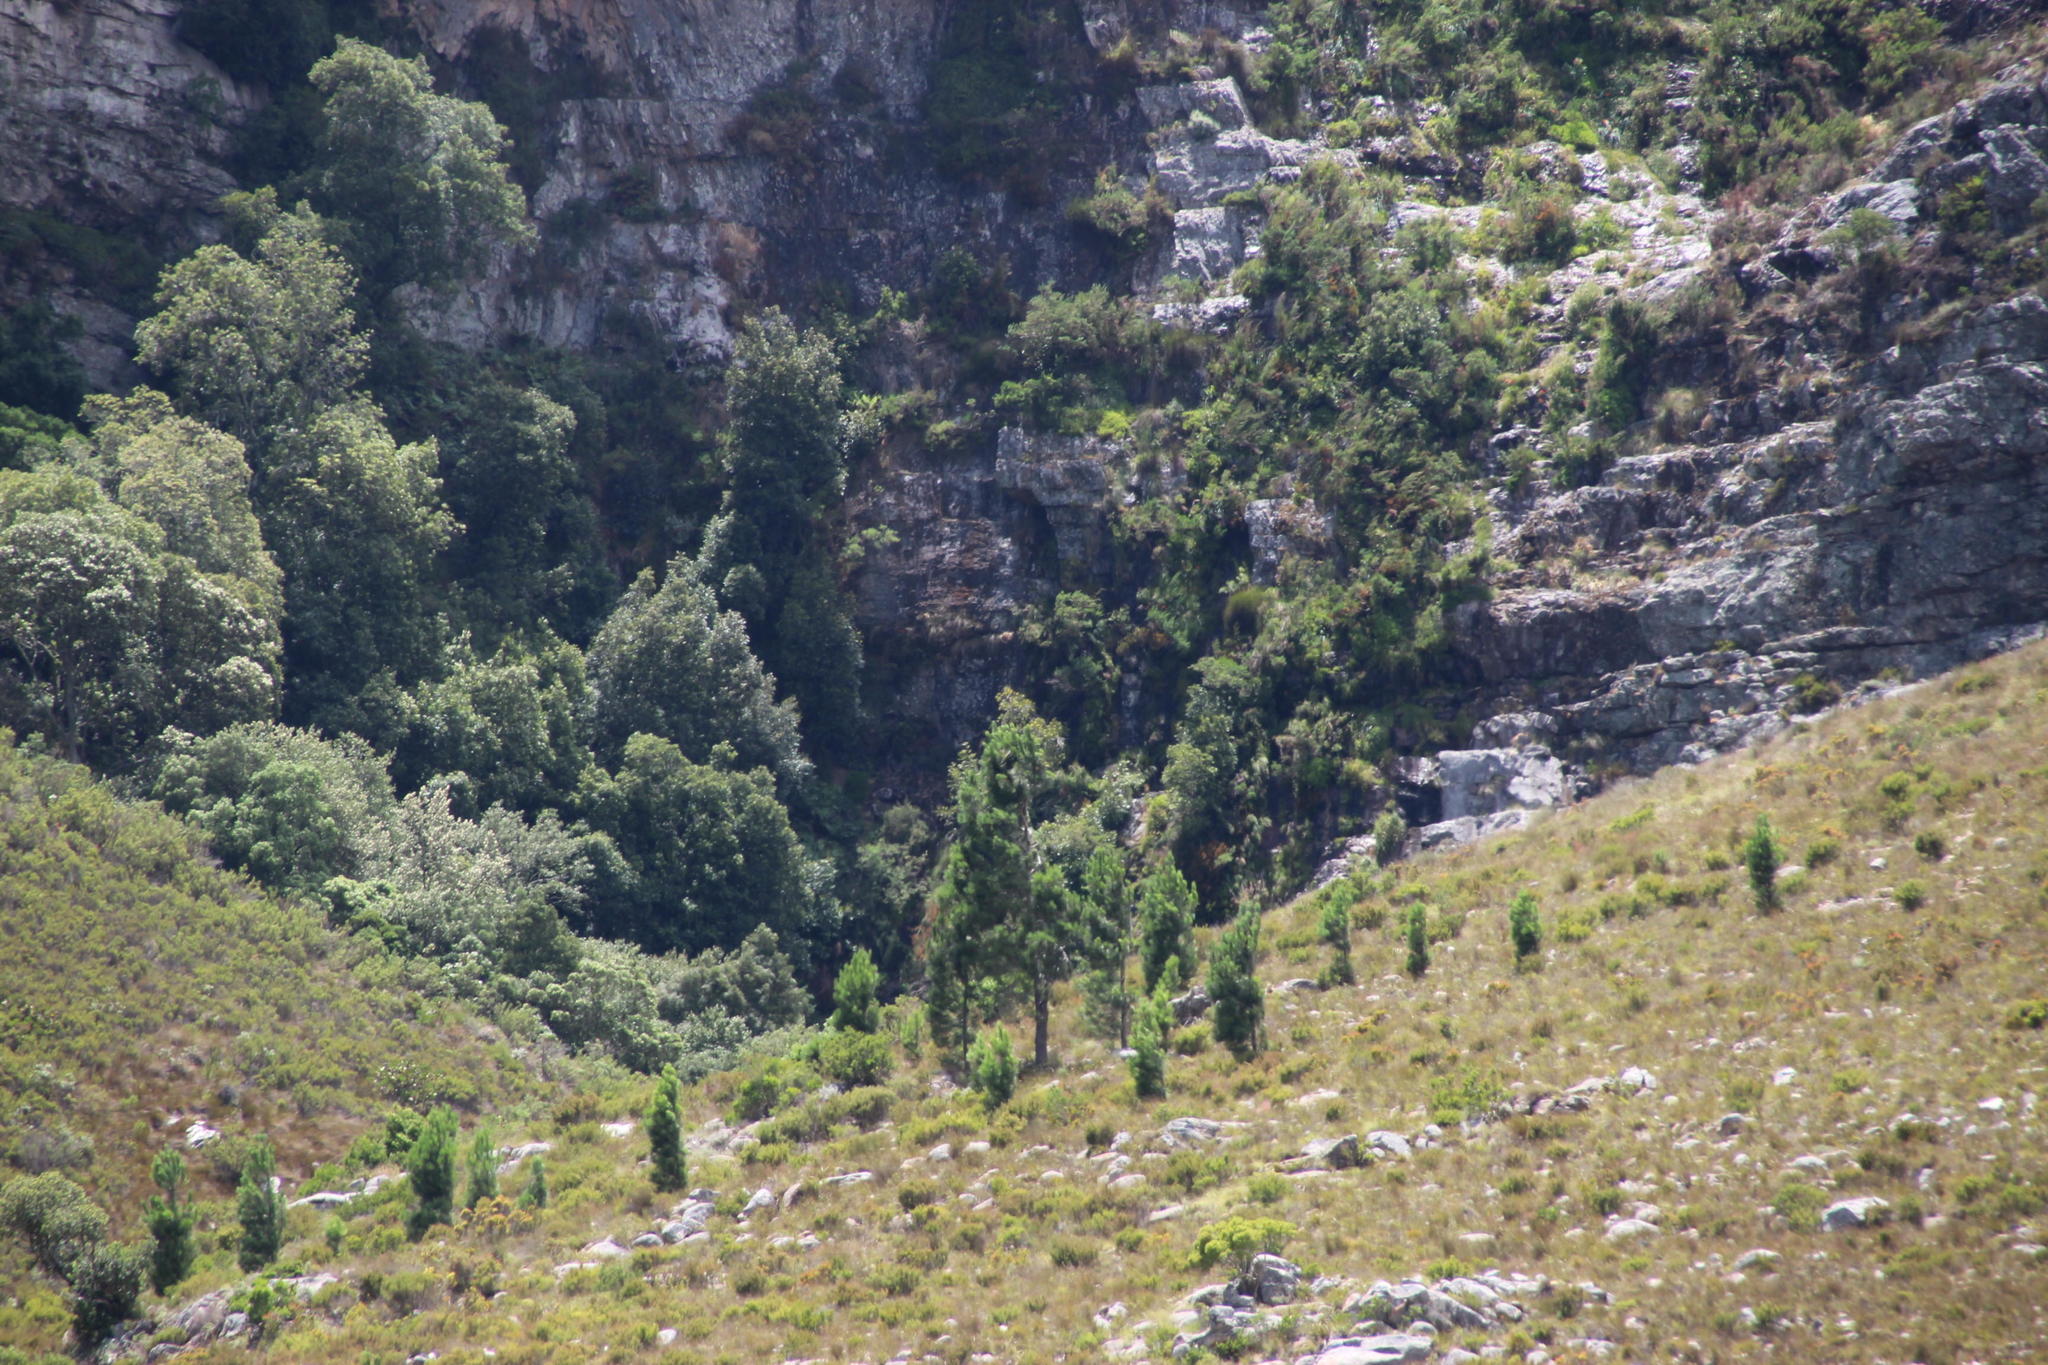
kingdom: Plantae
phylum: Tracheophyta
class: Pinopsida
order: Pinales
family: Pinaceae
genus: Pinus
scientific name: Pinus pinaster
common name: Maritime pine
